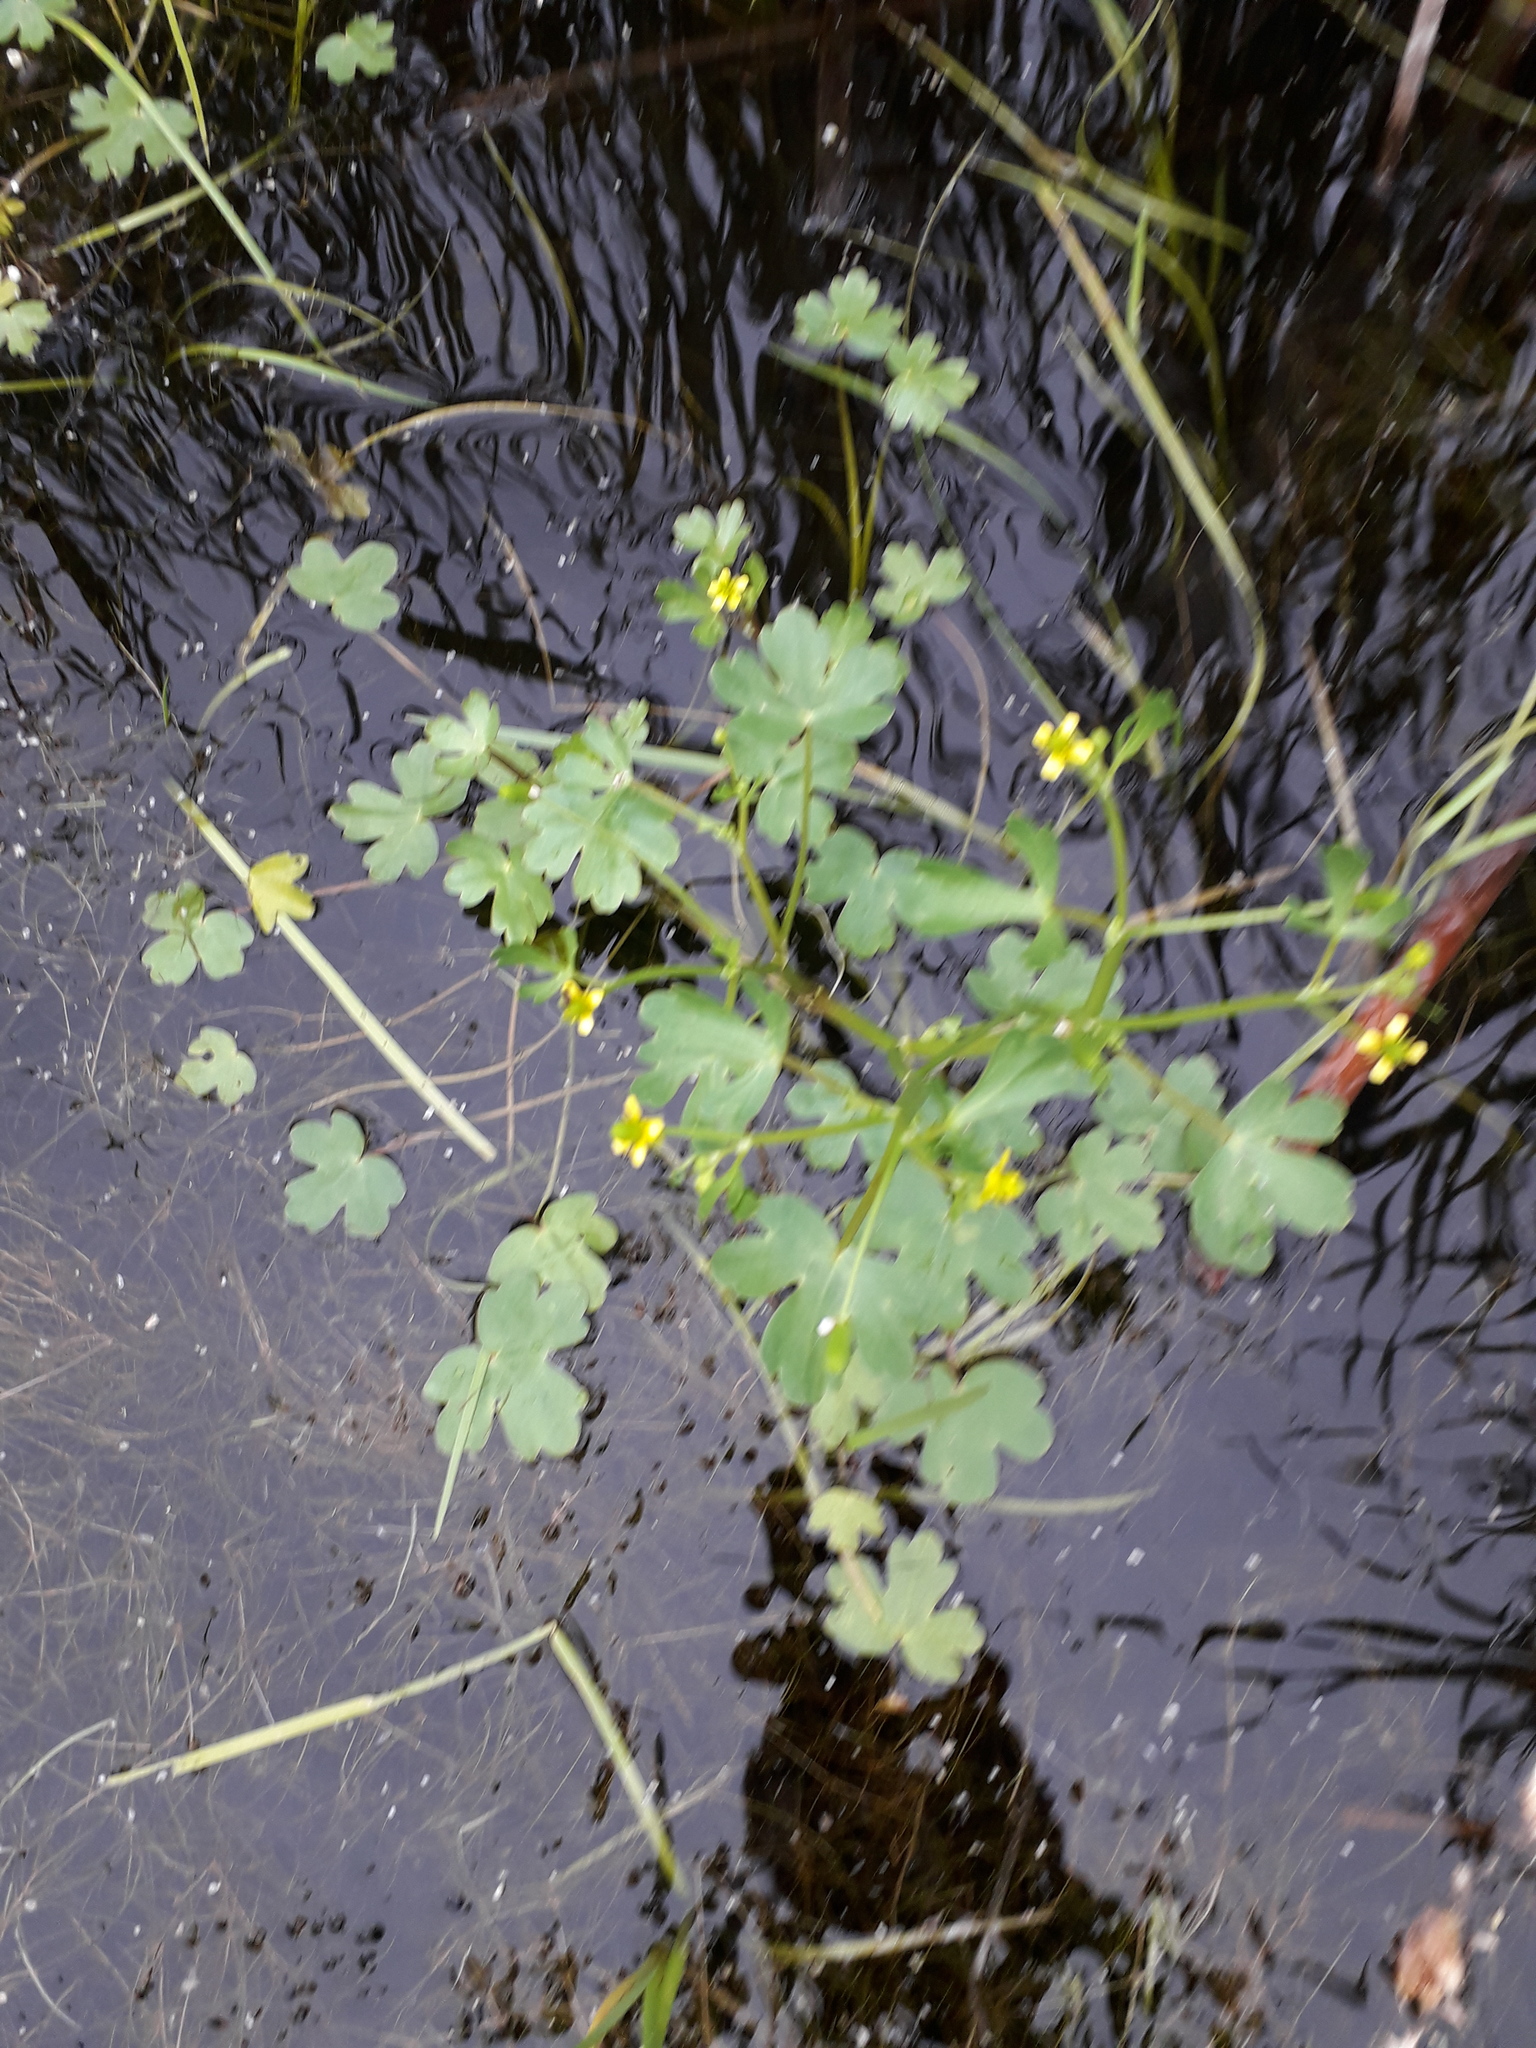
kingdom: Plantae
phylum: Tracheophyta
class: Magnoliopsida
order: Ranunculales
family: Ranunculaceae
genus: Ranunculus
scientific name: Ranunculus sceleratus
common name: Celery-leaved buttercup
